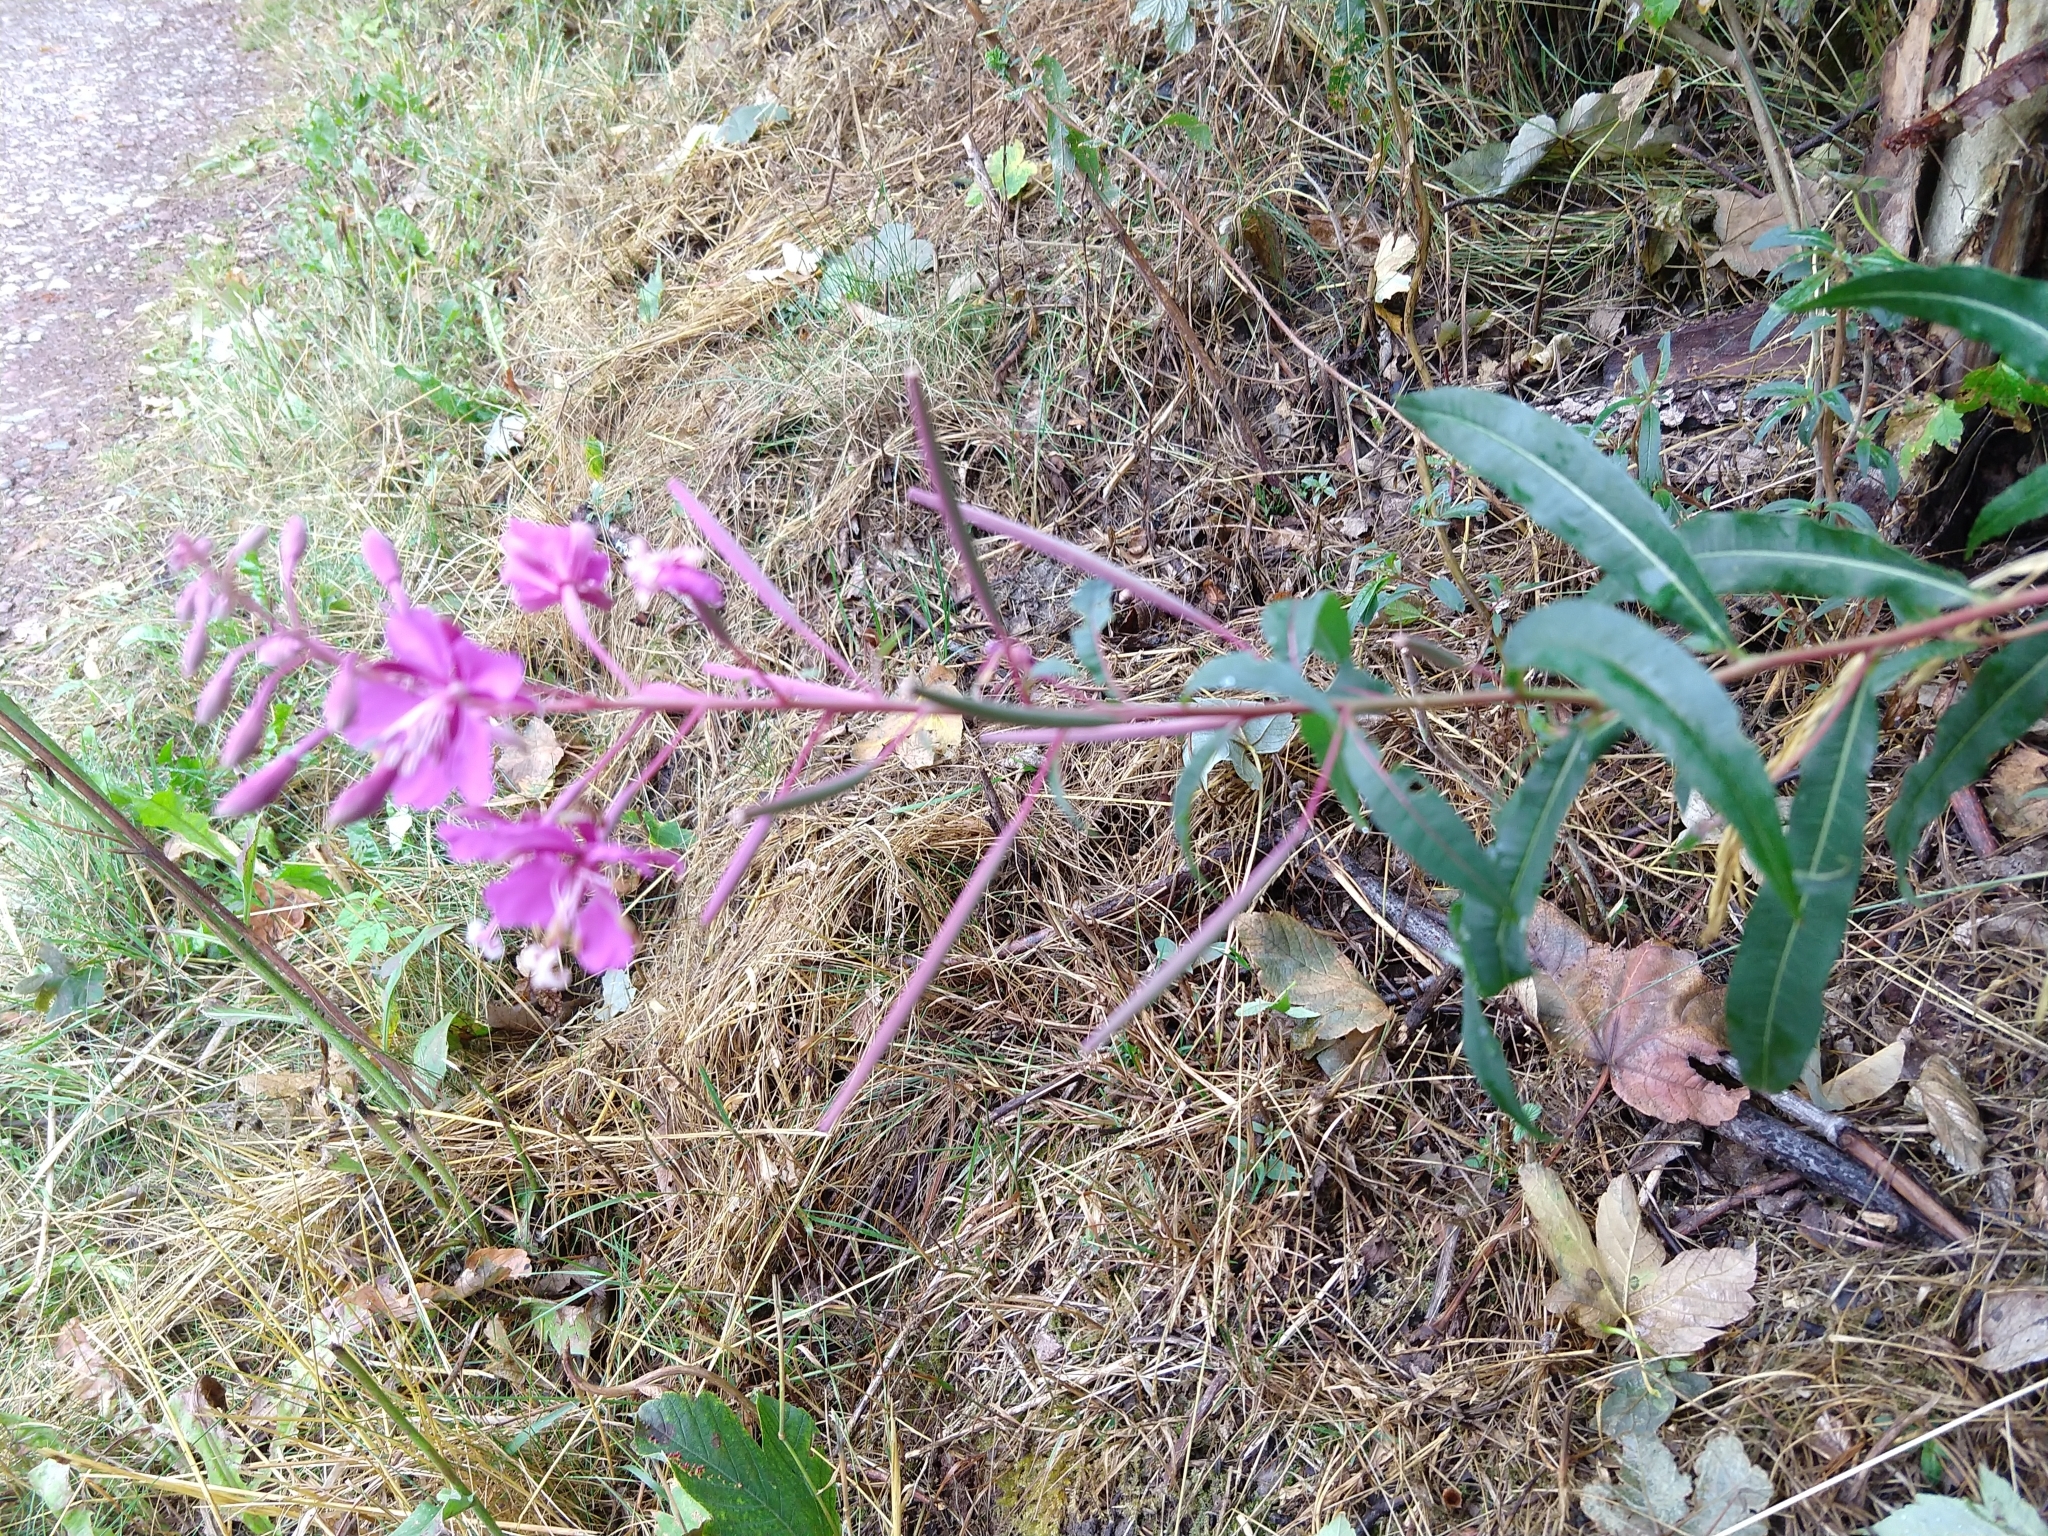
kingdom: Plantae
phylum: Tracheophyta
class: Magnoliopsida
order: Myrtales
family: Onagraceae
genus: Chamaenerion
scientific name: Chamaenerion angustifolium
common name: Fireweed
